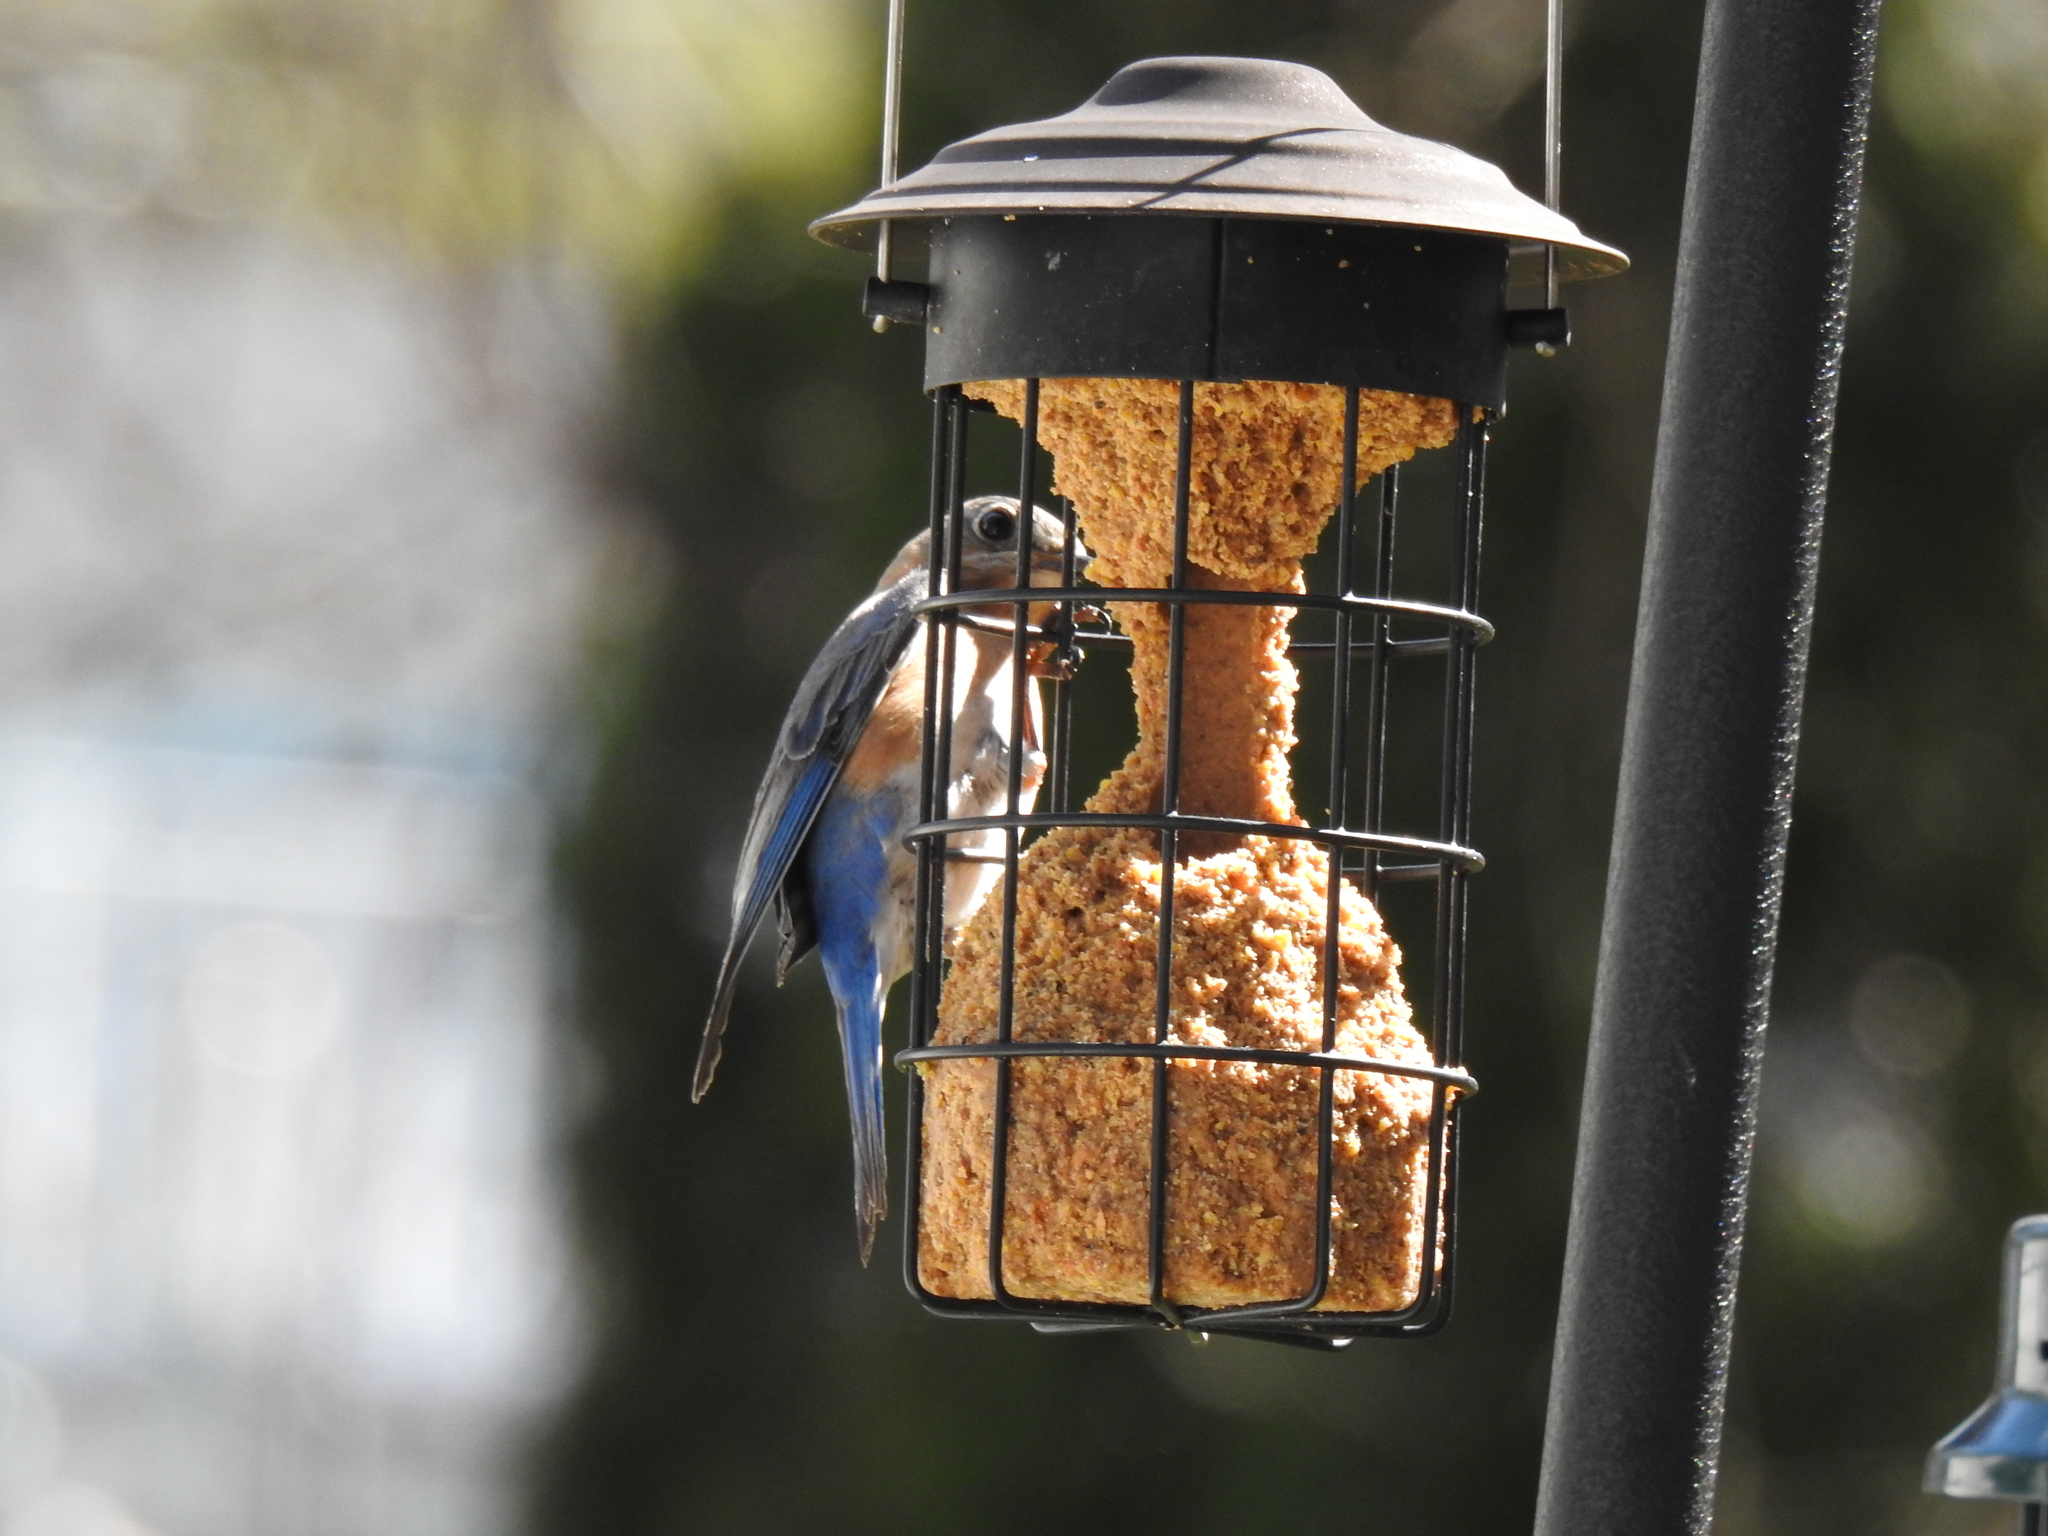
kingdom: Animalia
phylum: Chordata
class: Aves
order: Passeriformes
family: Turdidae
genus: Sialia
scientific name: Sialia sialis
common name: Eastern bluebird
